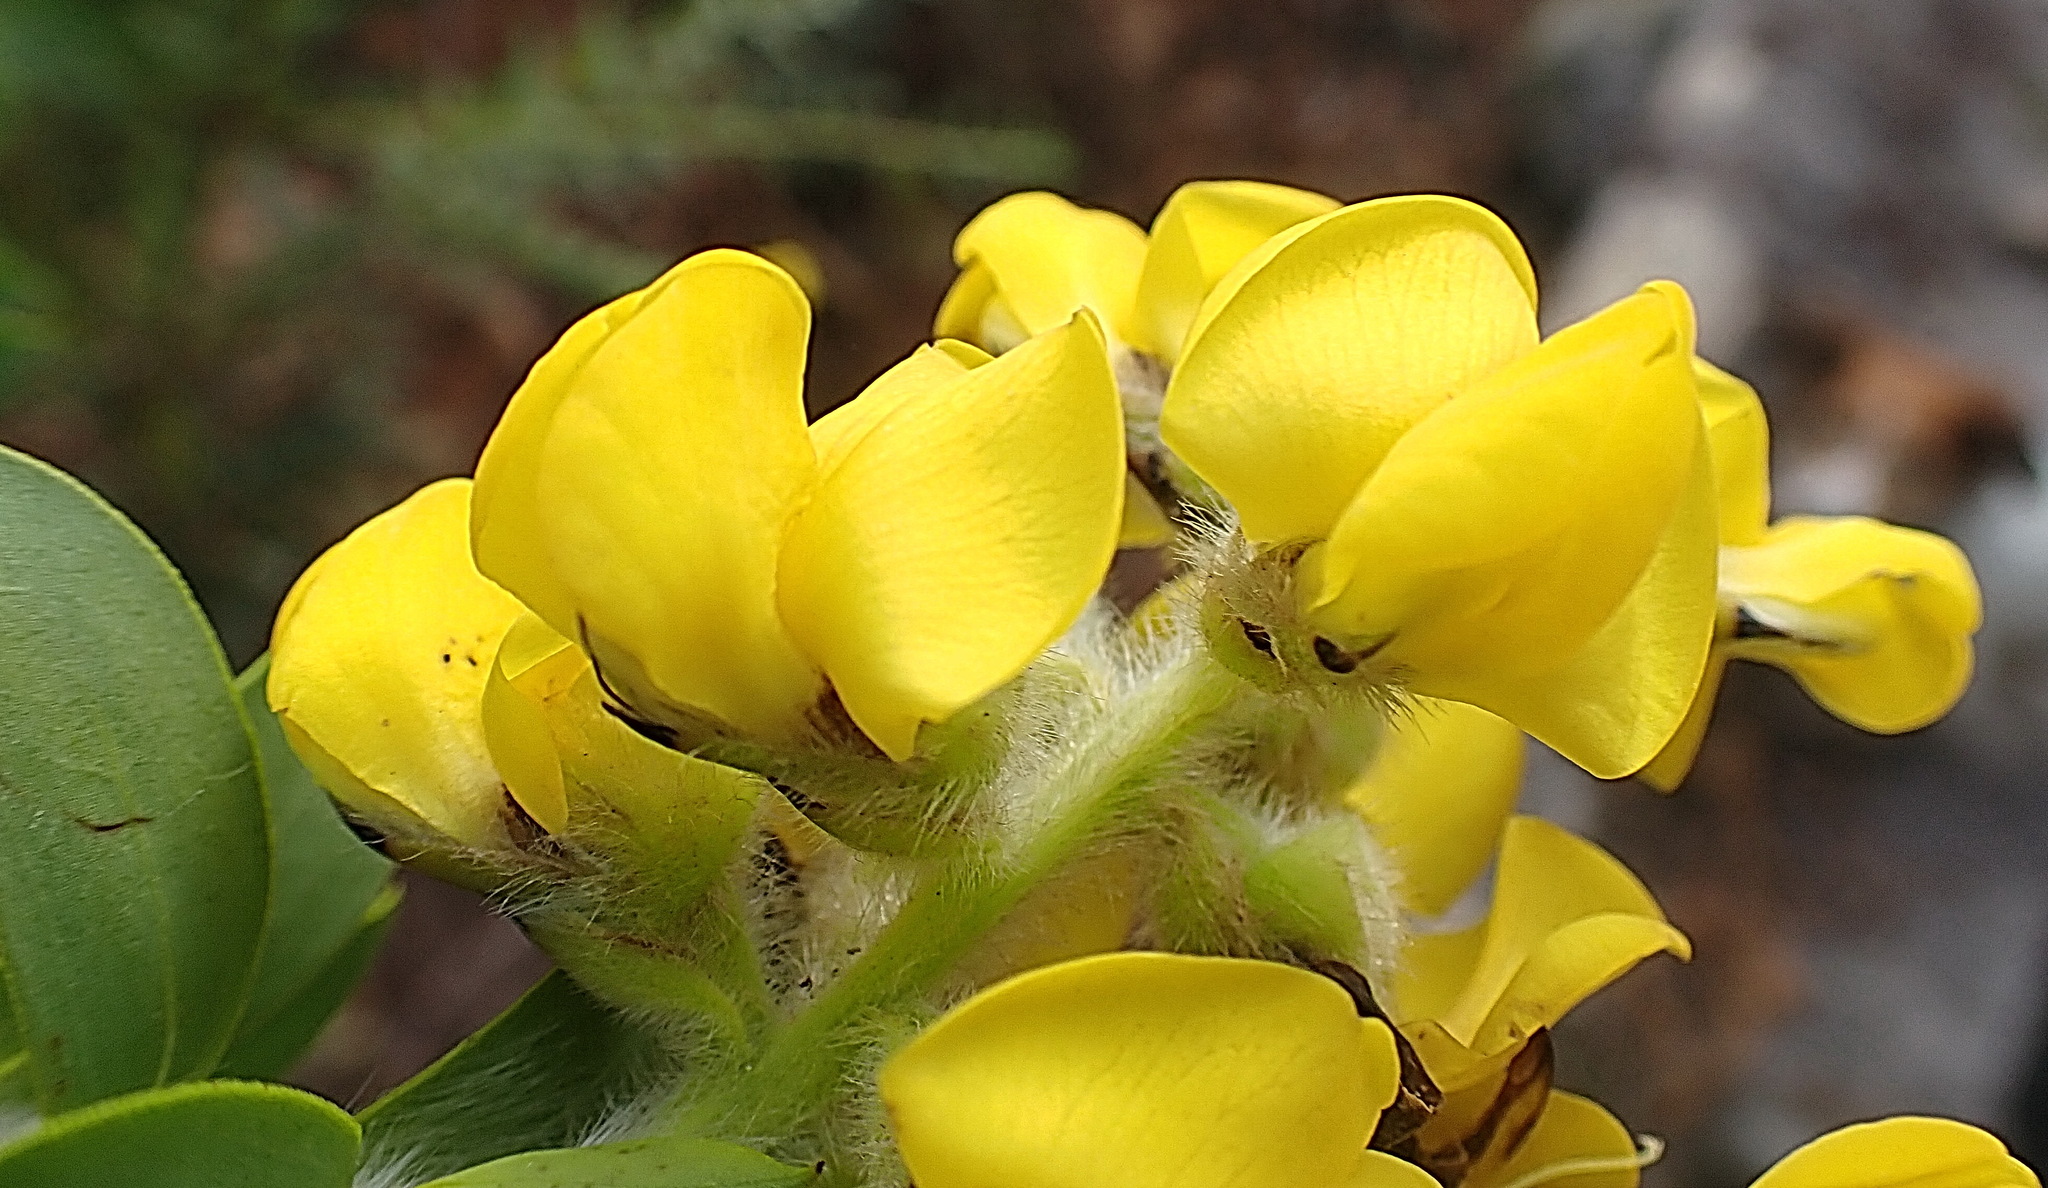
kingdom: Plantae
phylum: Tracheophyta
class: Magnoliopsida
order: Fabales
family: Fabaceae
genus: Liparia
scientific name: Liparia hirsuta
